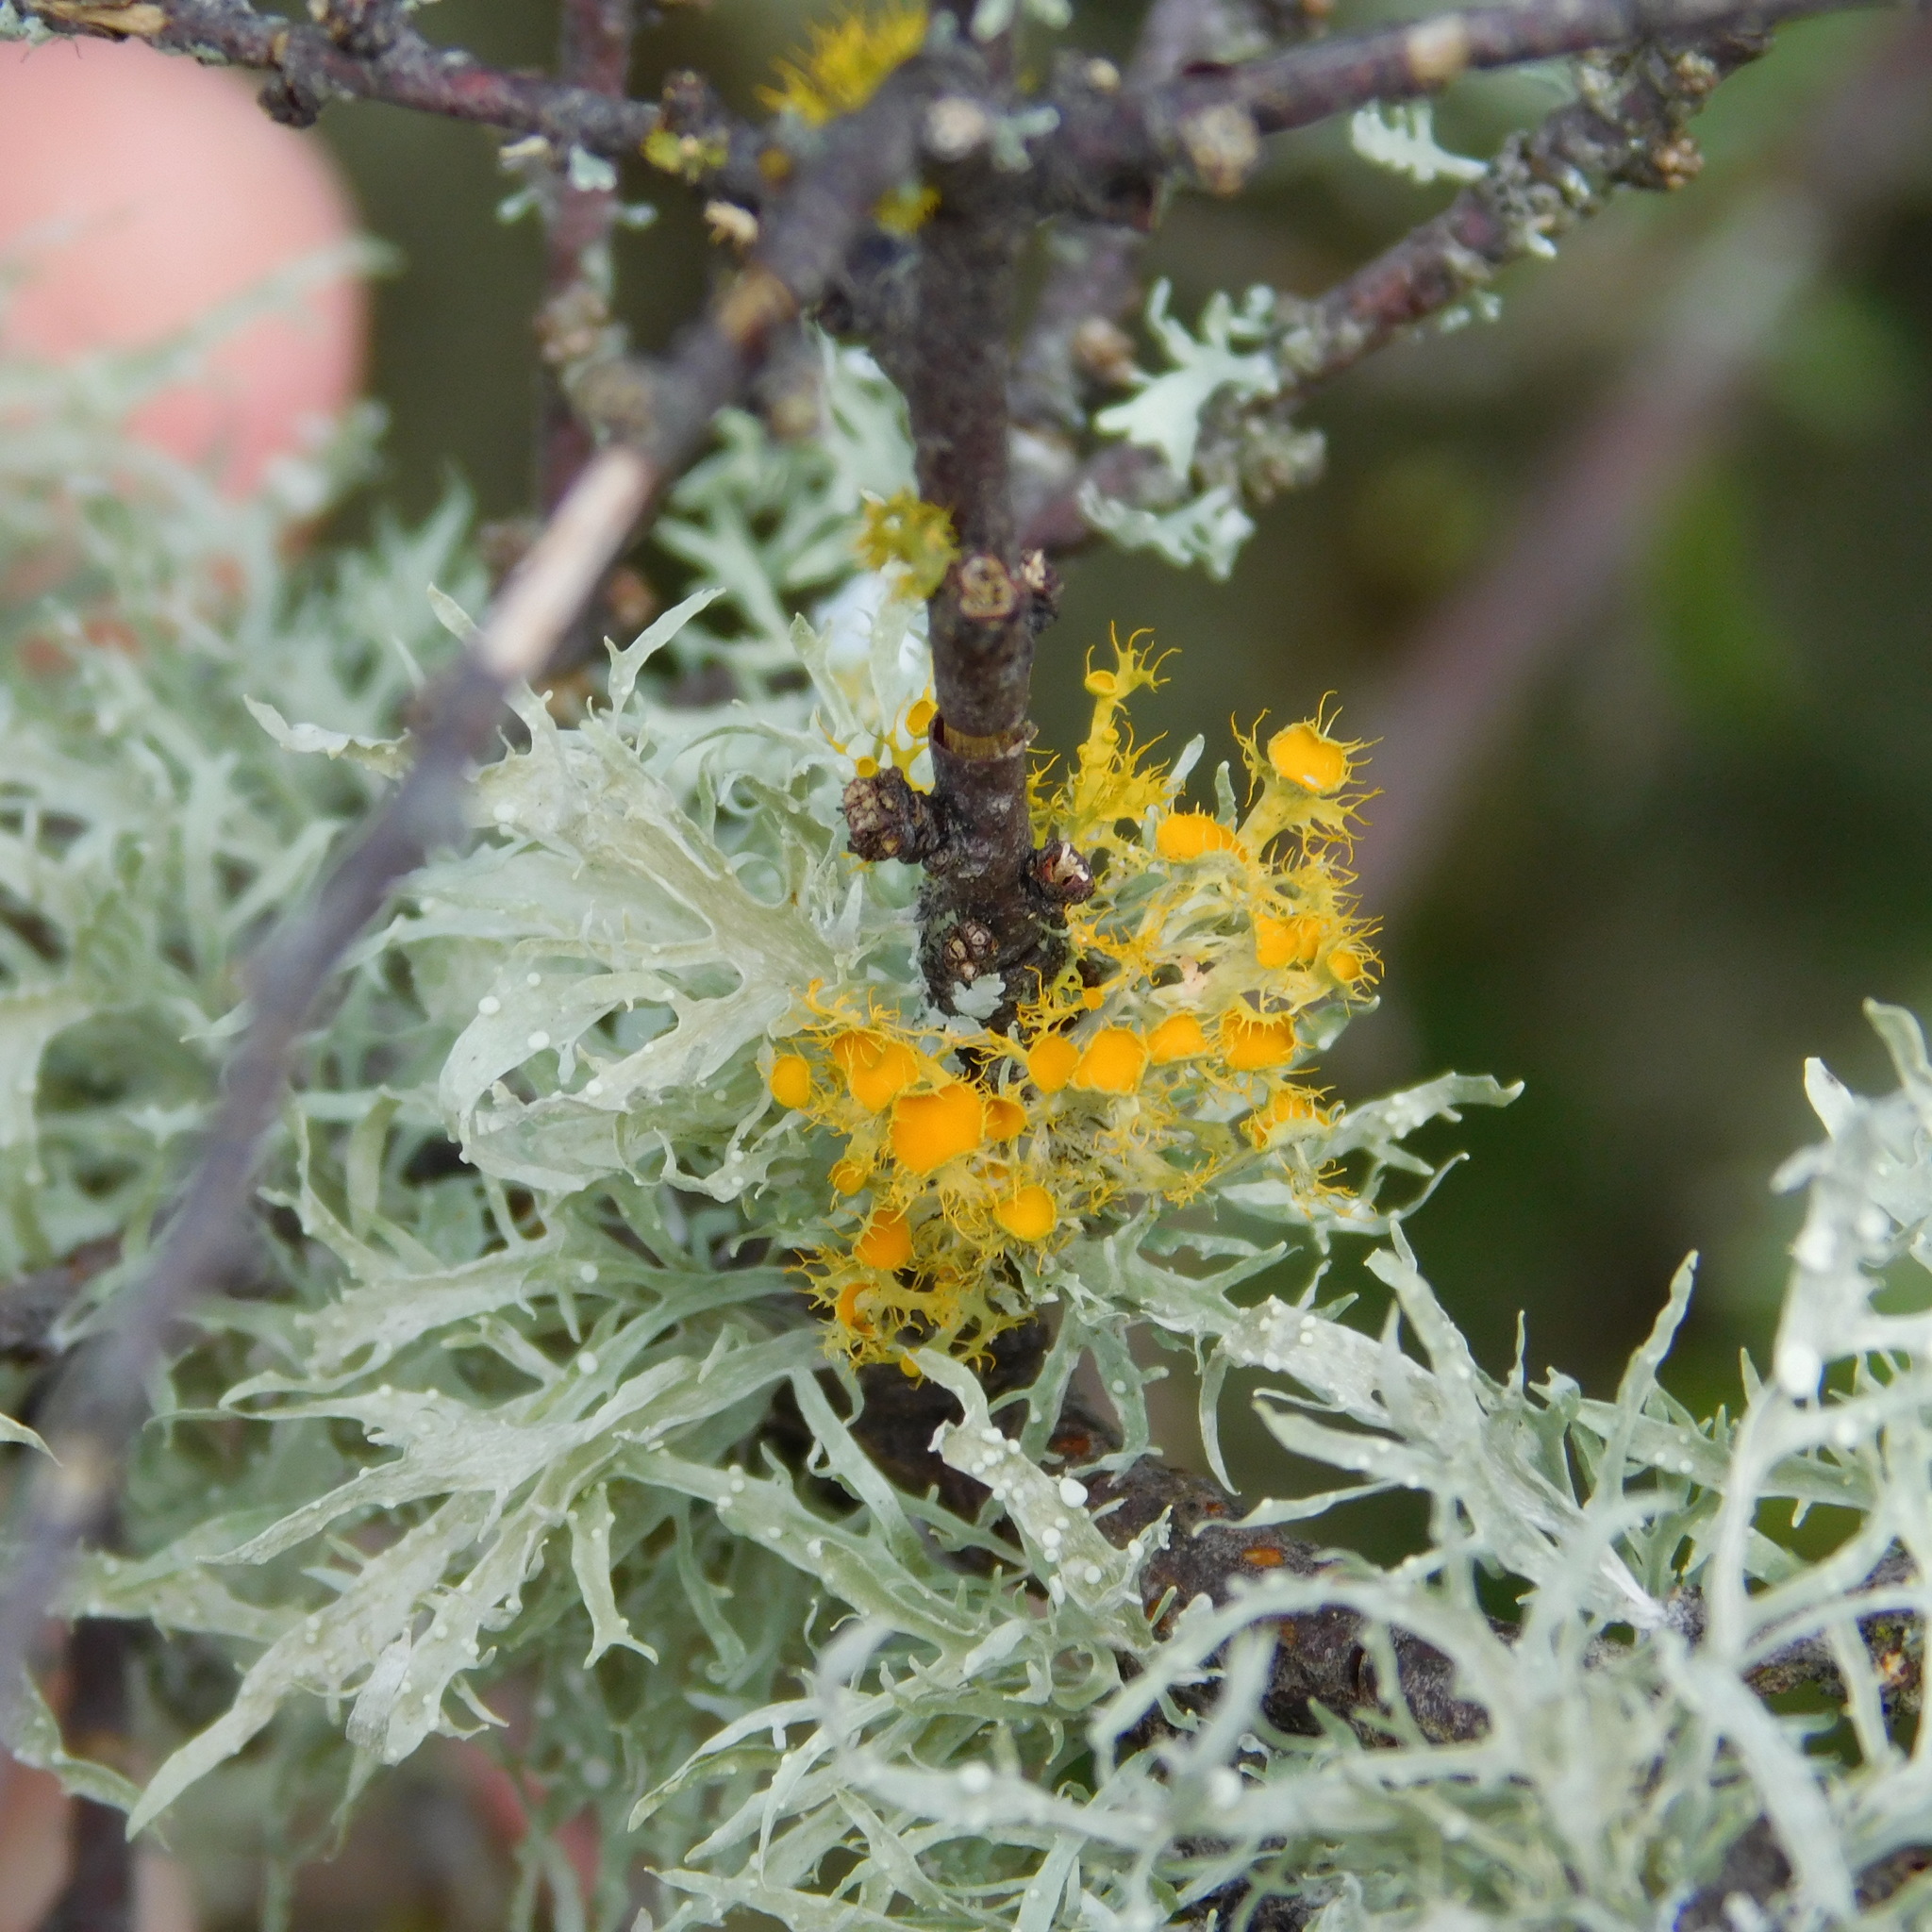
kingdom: Fungi
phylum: Ascomycota
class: Lecanoromycetes
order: Teloschistales
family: Teloschistaceae
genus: Niorma
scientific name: Niorma chrysophthalma
